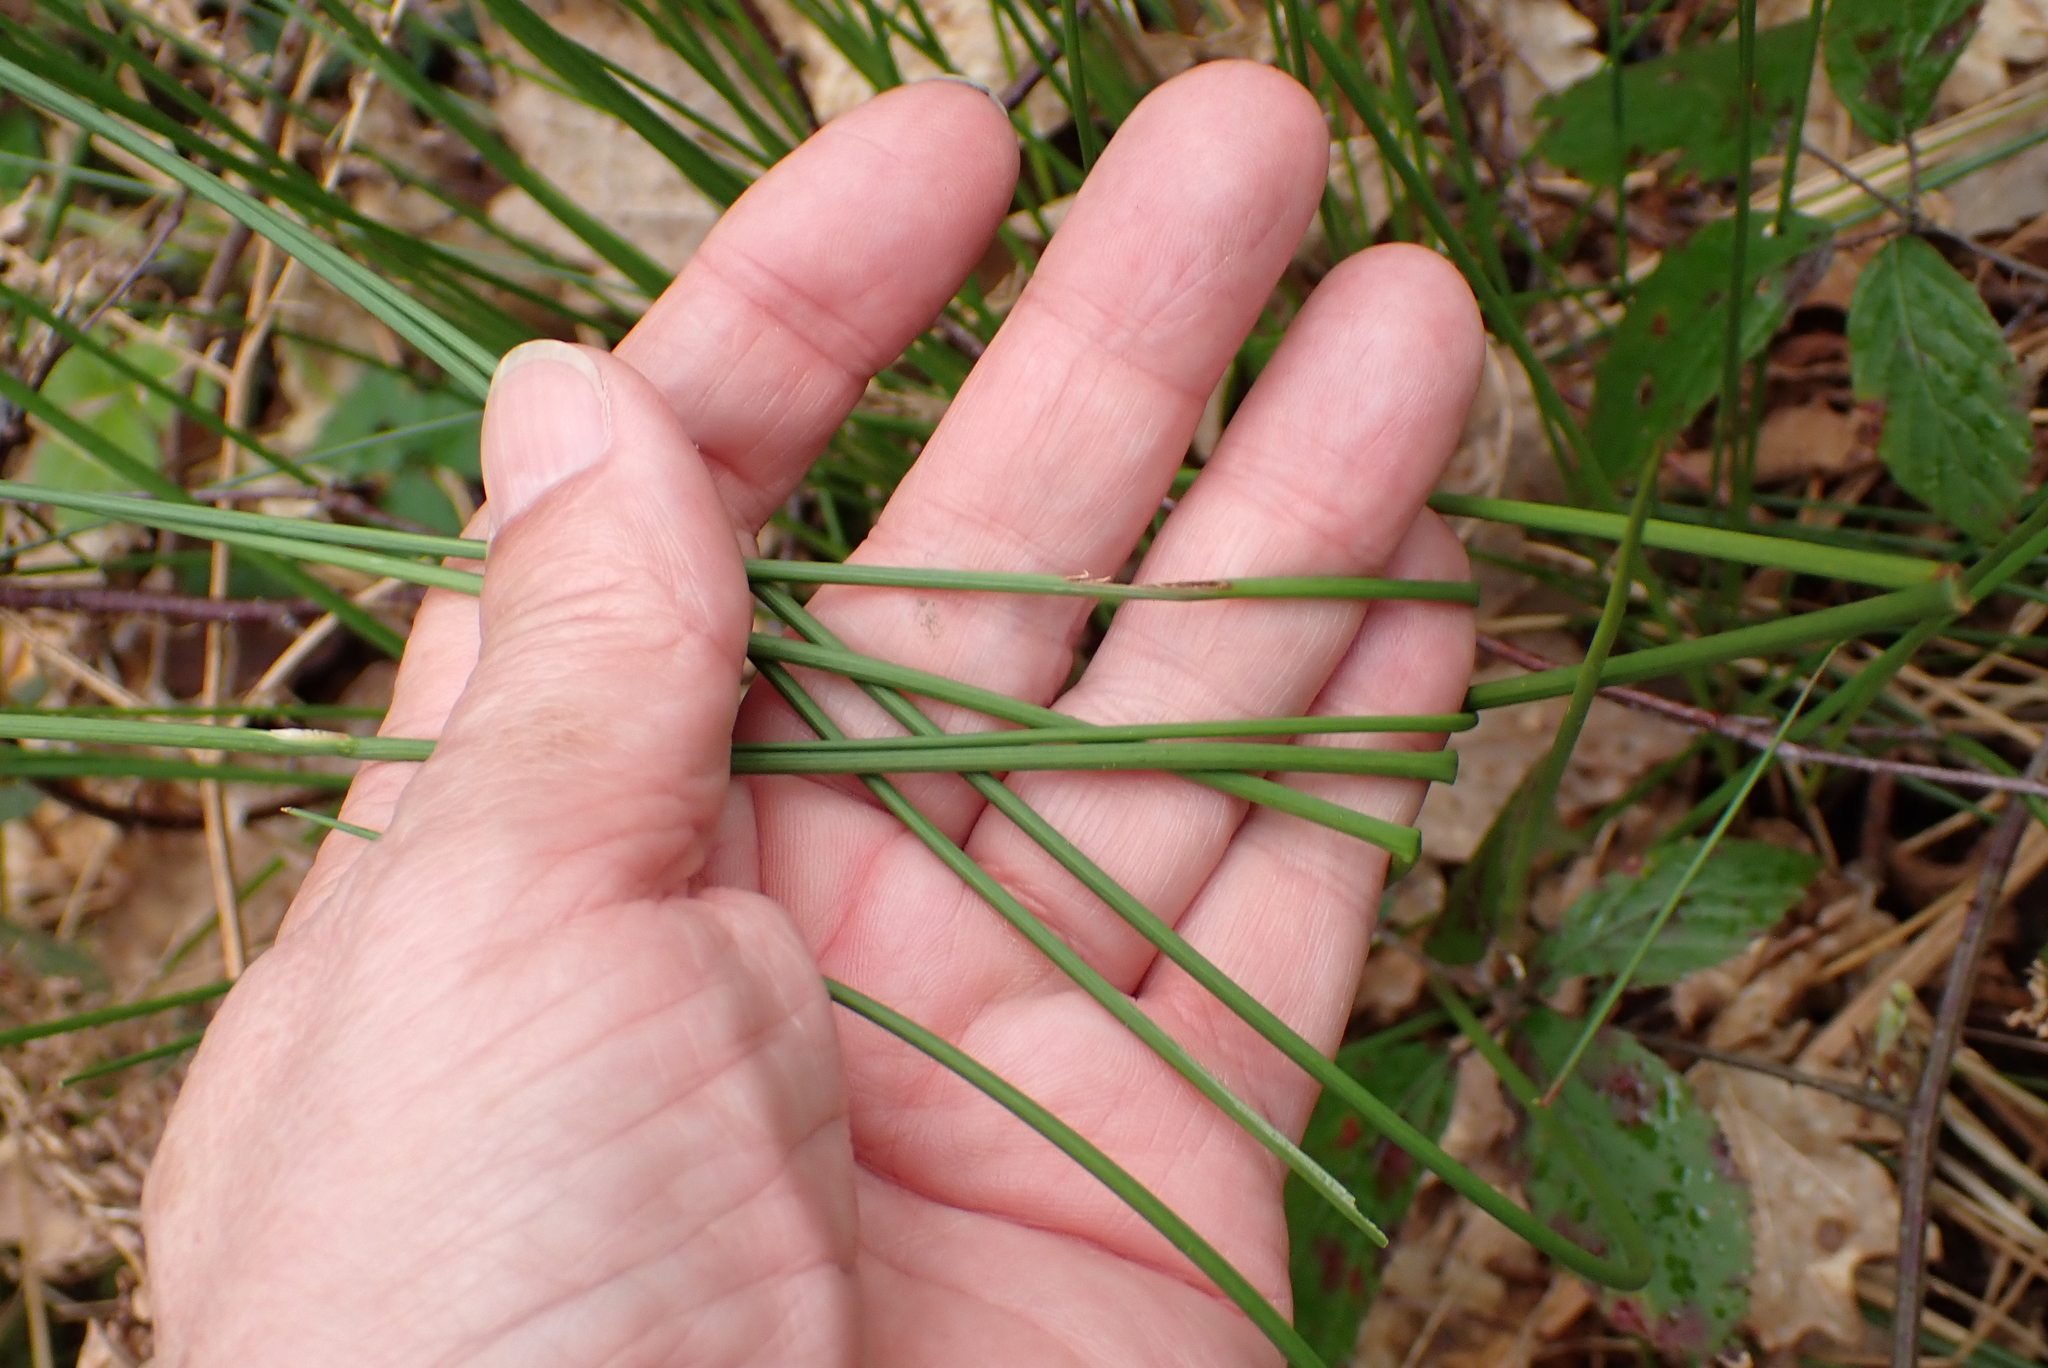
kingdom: Plantae
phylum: Tracheophyta
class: Liliopsida
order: Poales
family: Juncaceae
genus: Juncus
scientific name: Juncus effusus
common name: Soft rush
